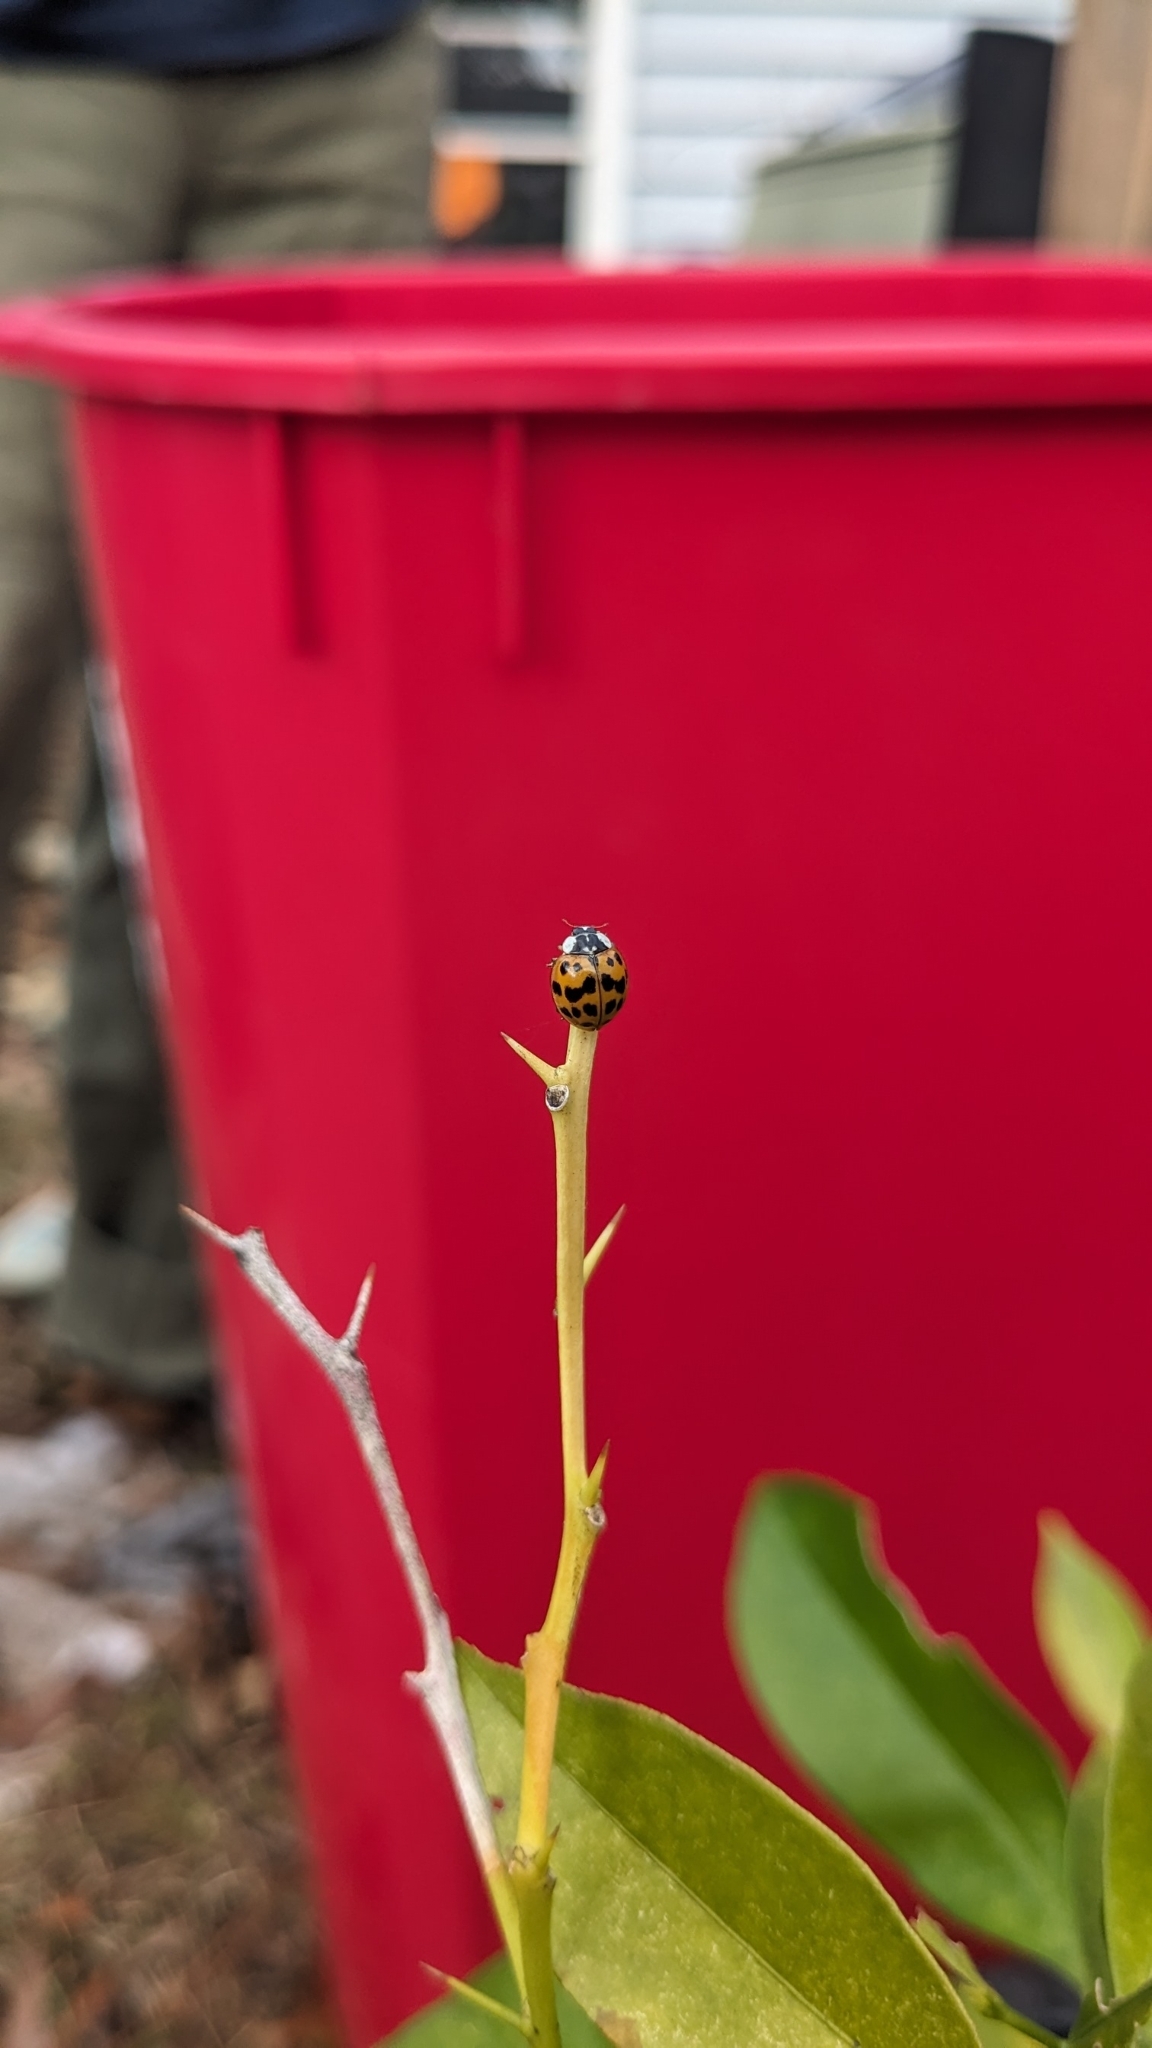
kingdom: Animalia
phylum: Arthropoda
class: Insecta
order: Coleoptera
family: Coccinellidae
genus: Harmonia
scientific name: Harmonia axyridis
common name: Harlequin ladybird
